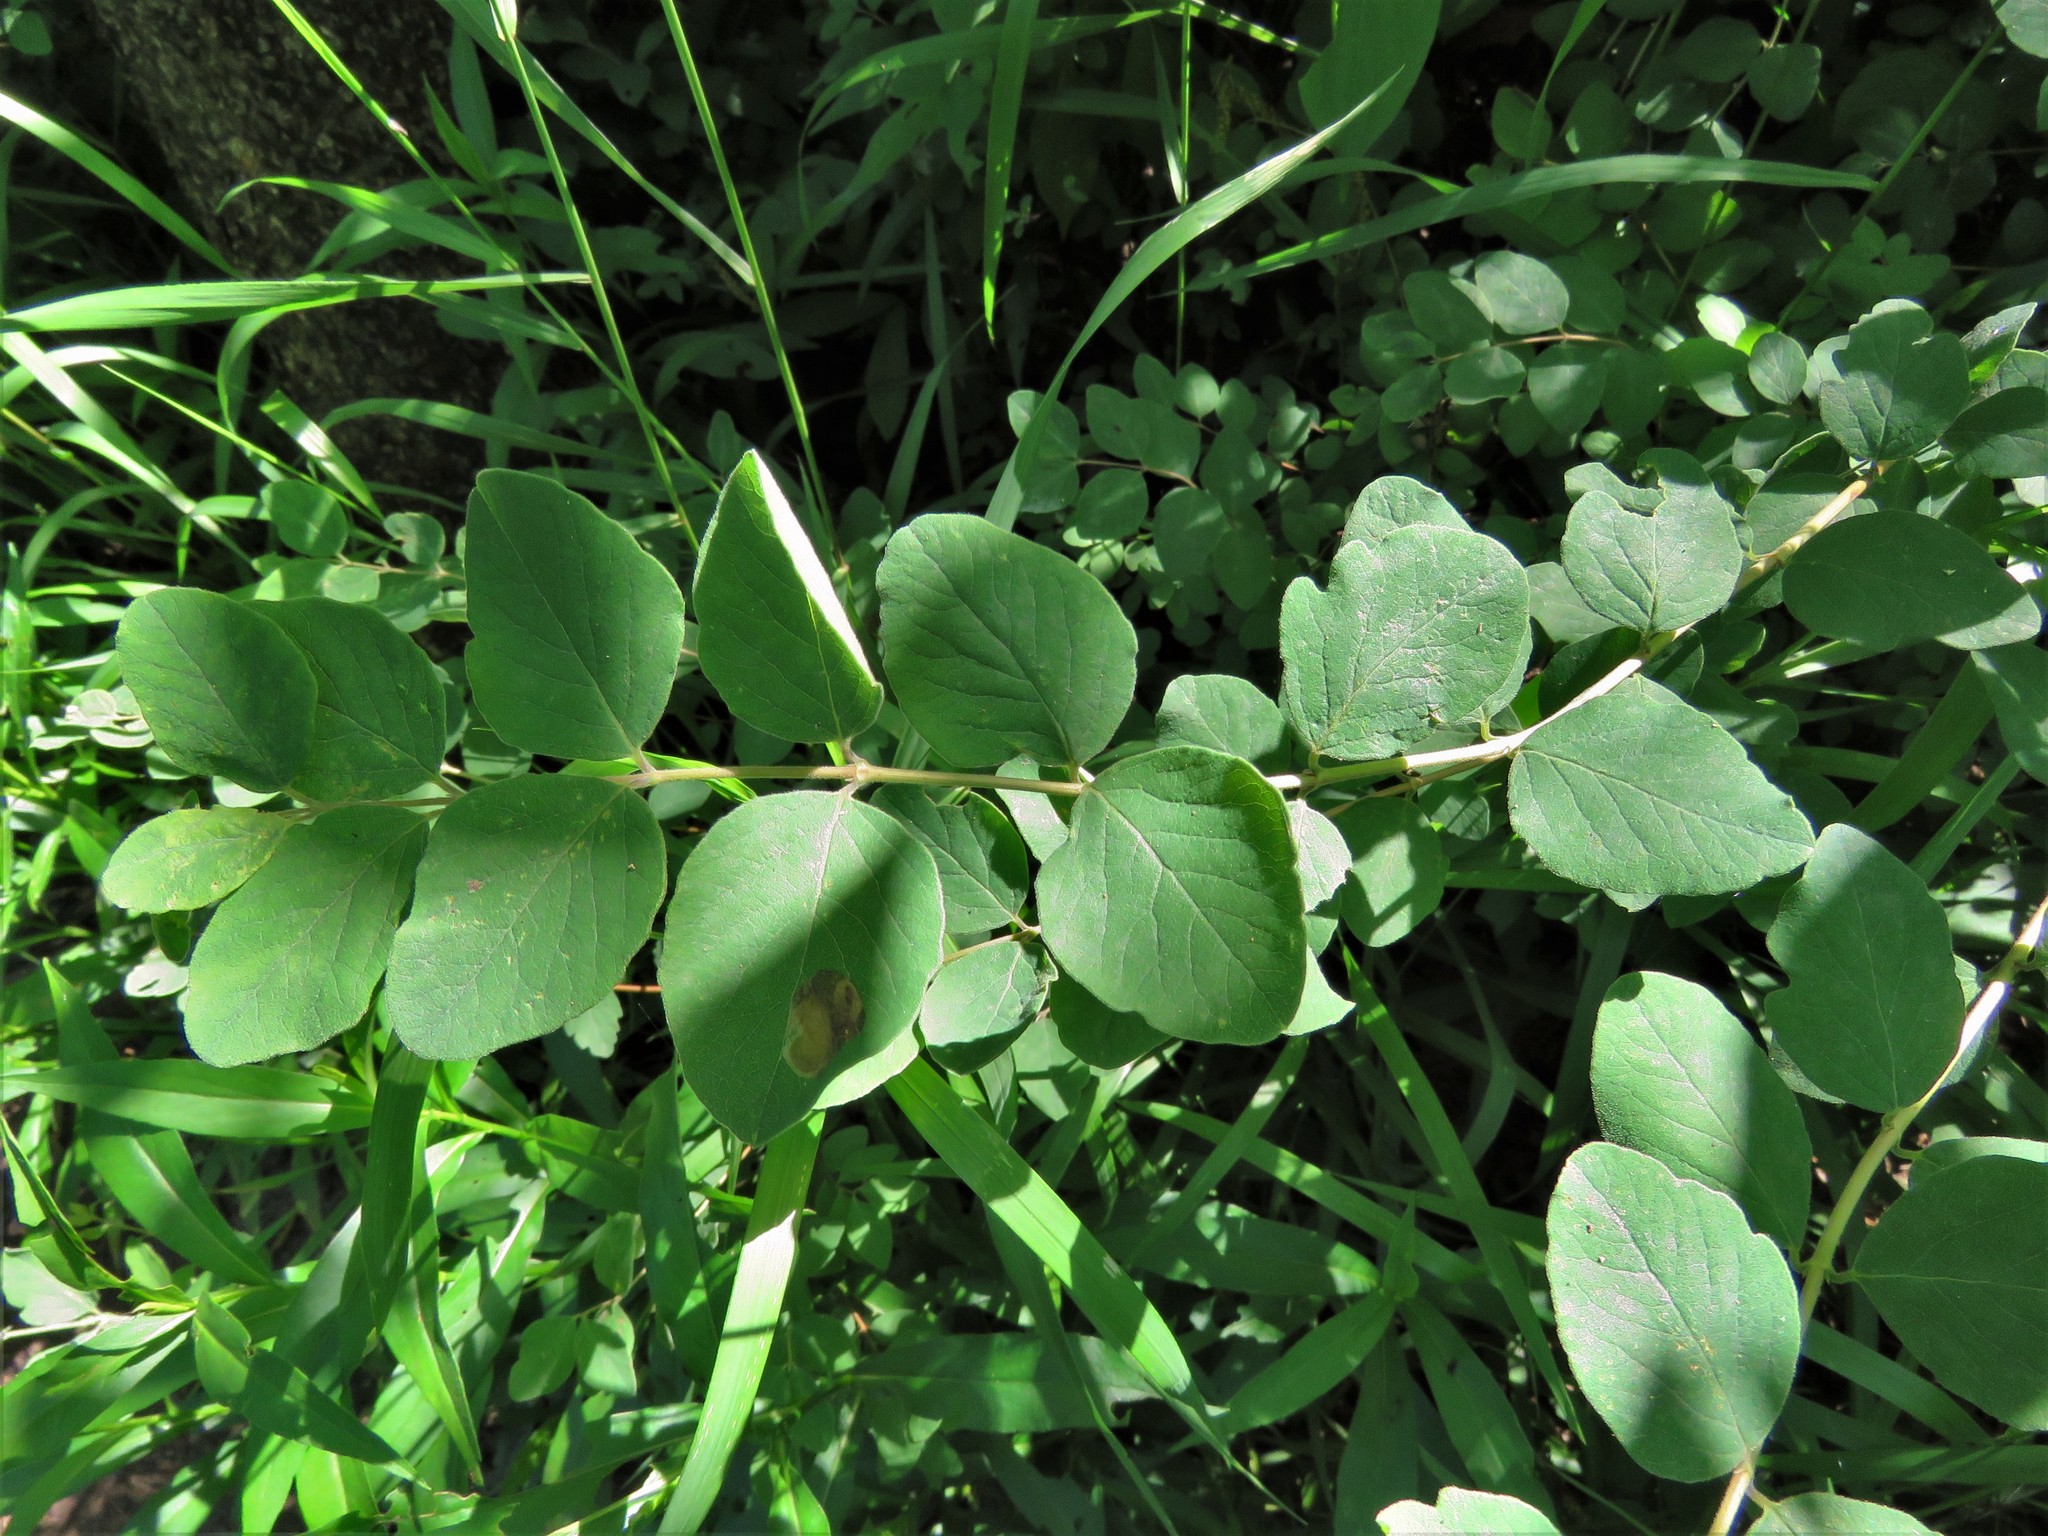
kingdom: Plantae
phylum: Tracheophyta
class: Magnoliopsida
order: Dipsacales
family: Caprifoliaceae
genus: Symphoricarpos
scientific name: Symphoricarpos orbiculatus
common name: Coralberry
